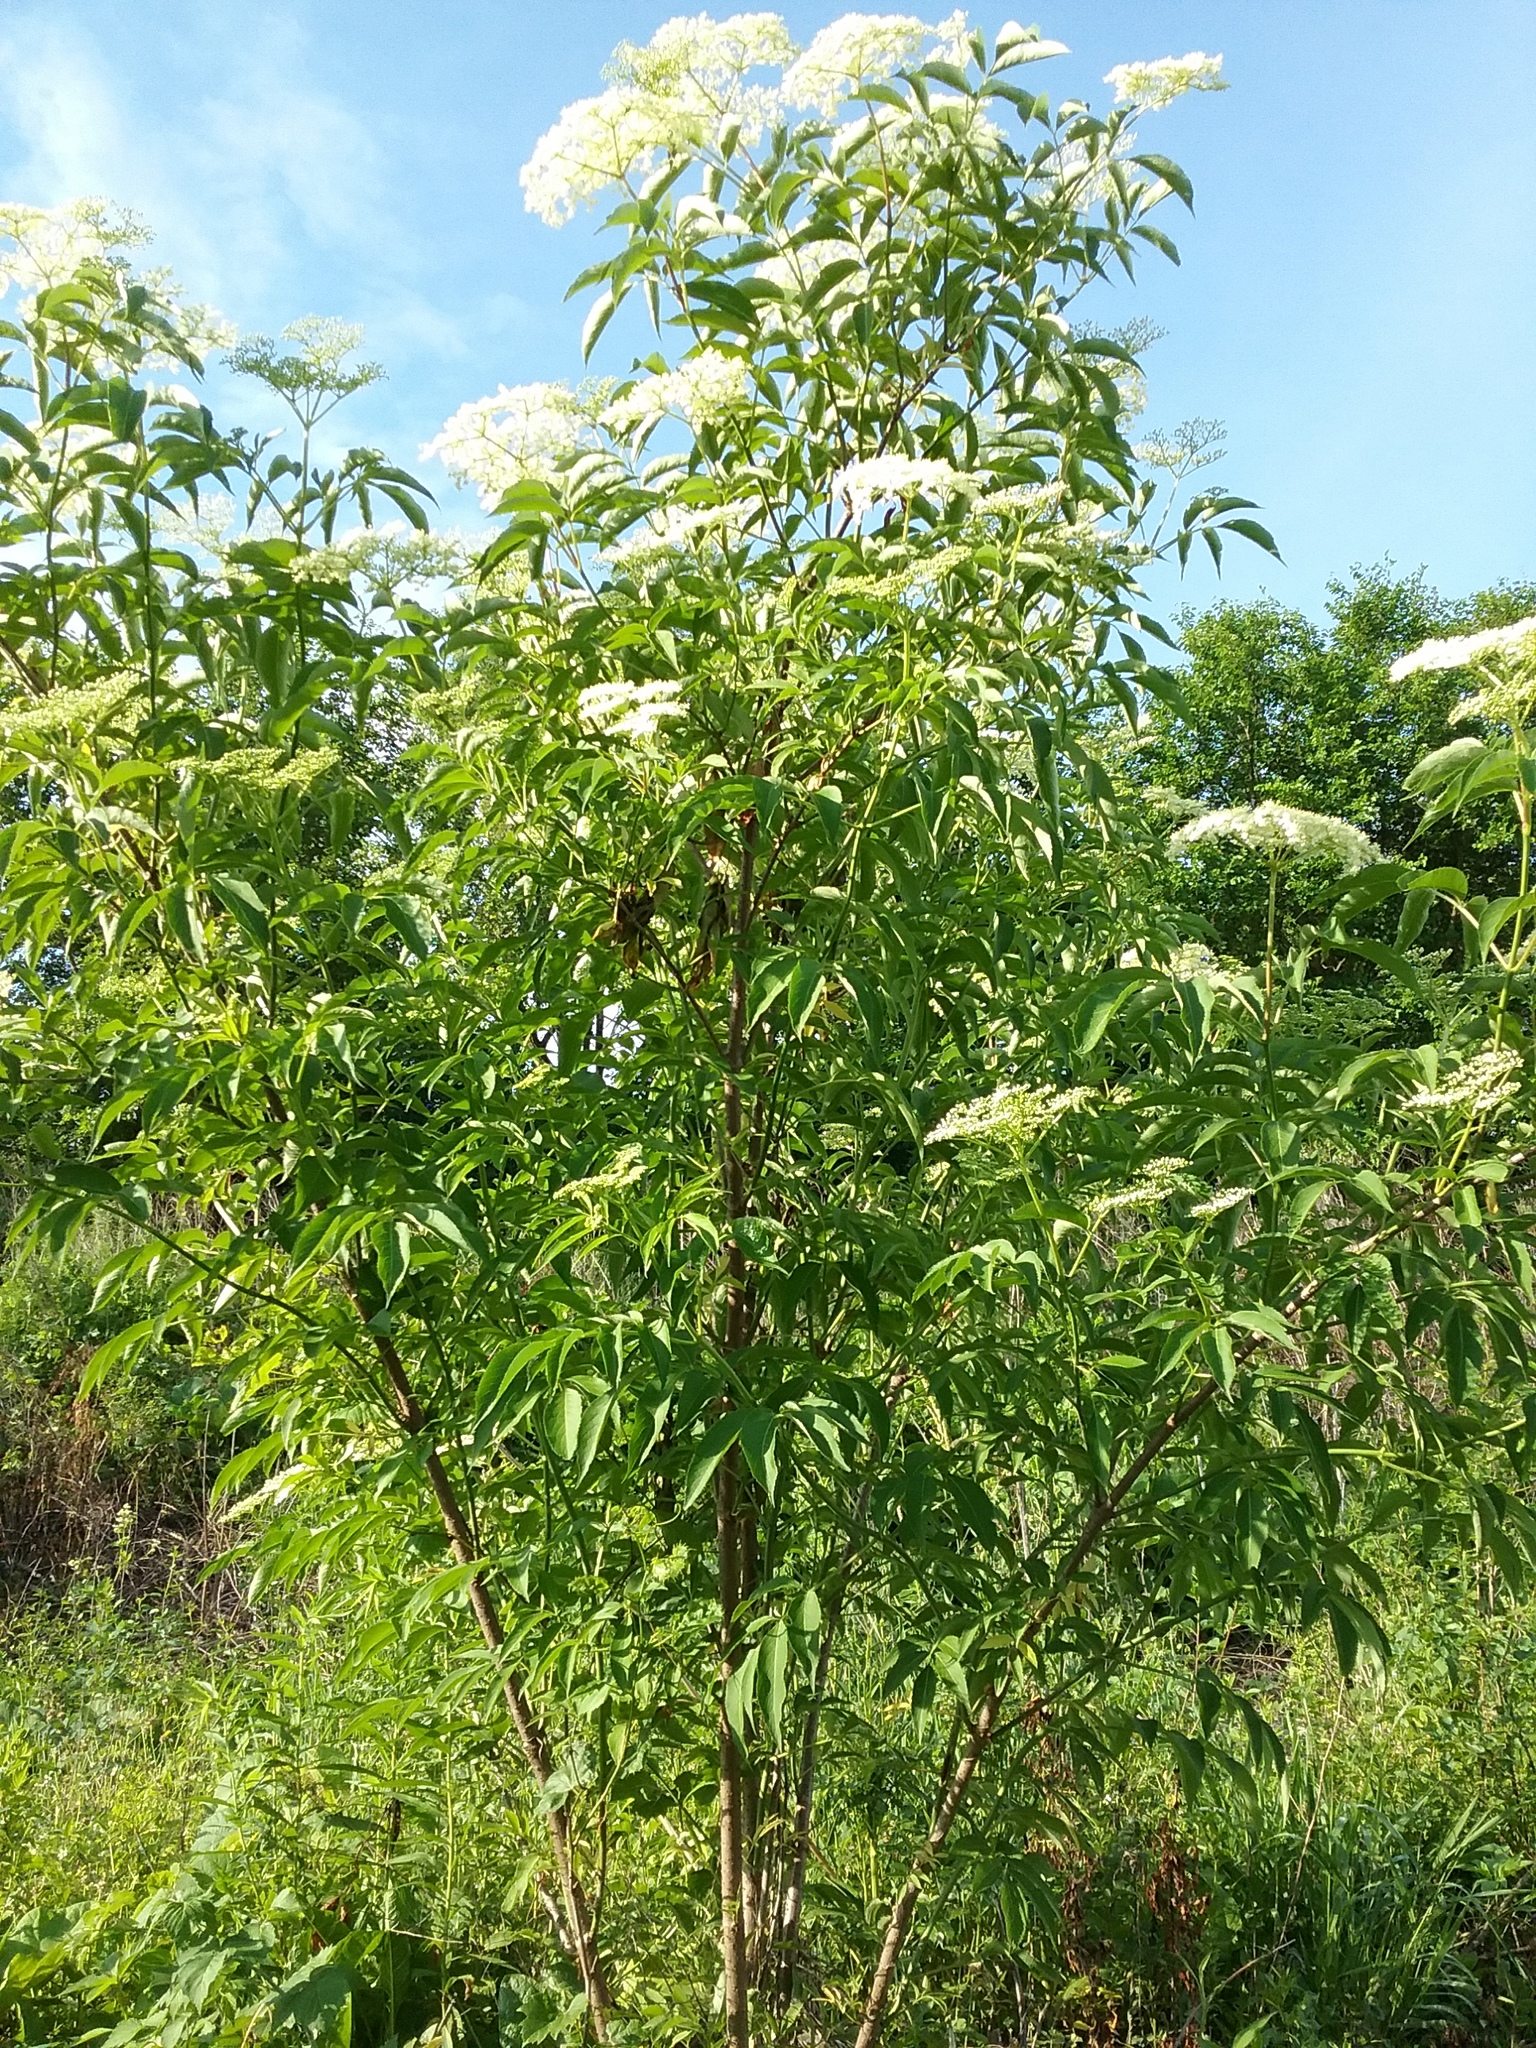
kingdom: Plantae
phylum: Tracheophyta
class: Magnoliopsida
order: Dipsacales
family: Viburnaceae
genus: Sambucus
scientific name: Sambucus canadensis
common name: American elder
